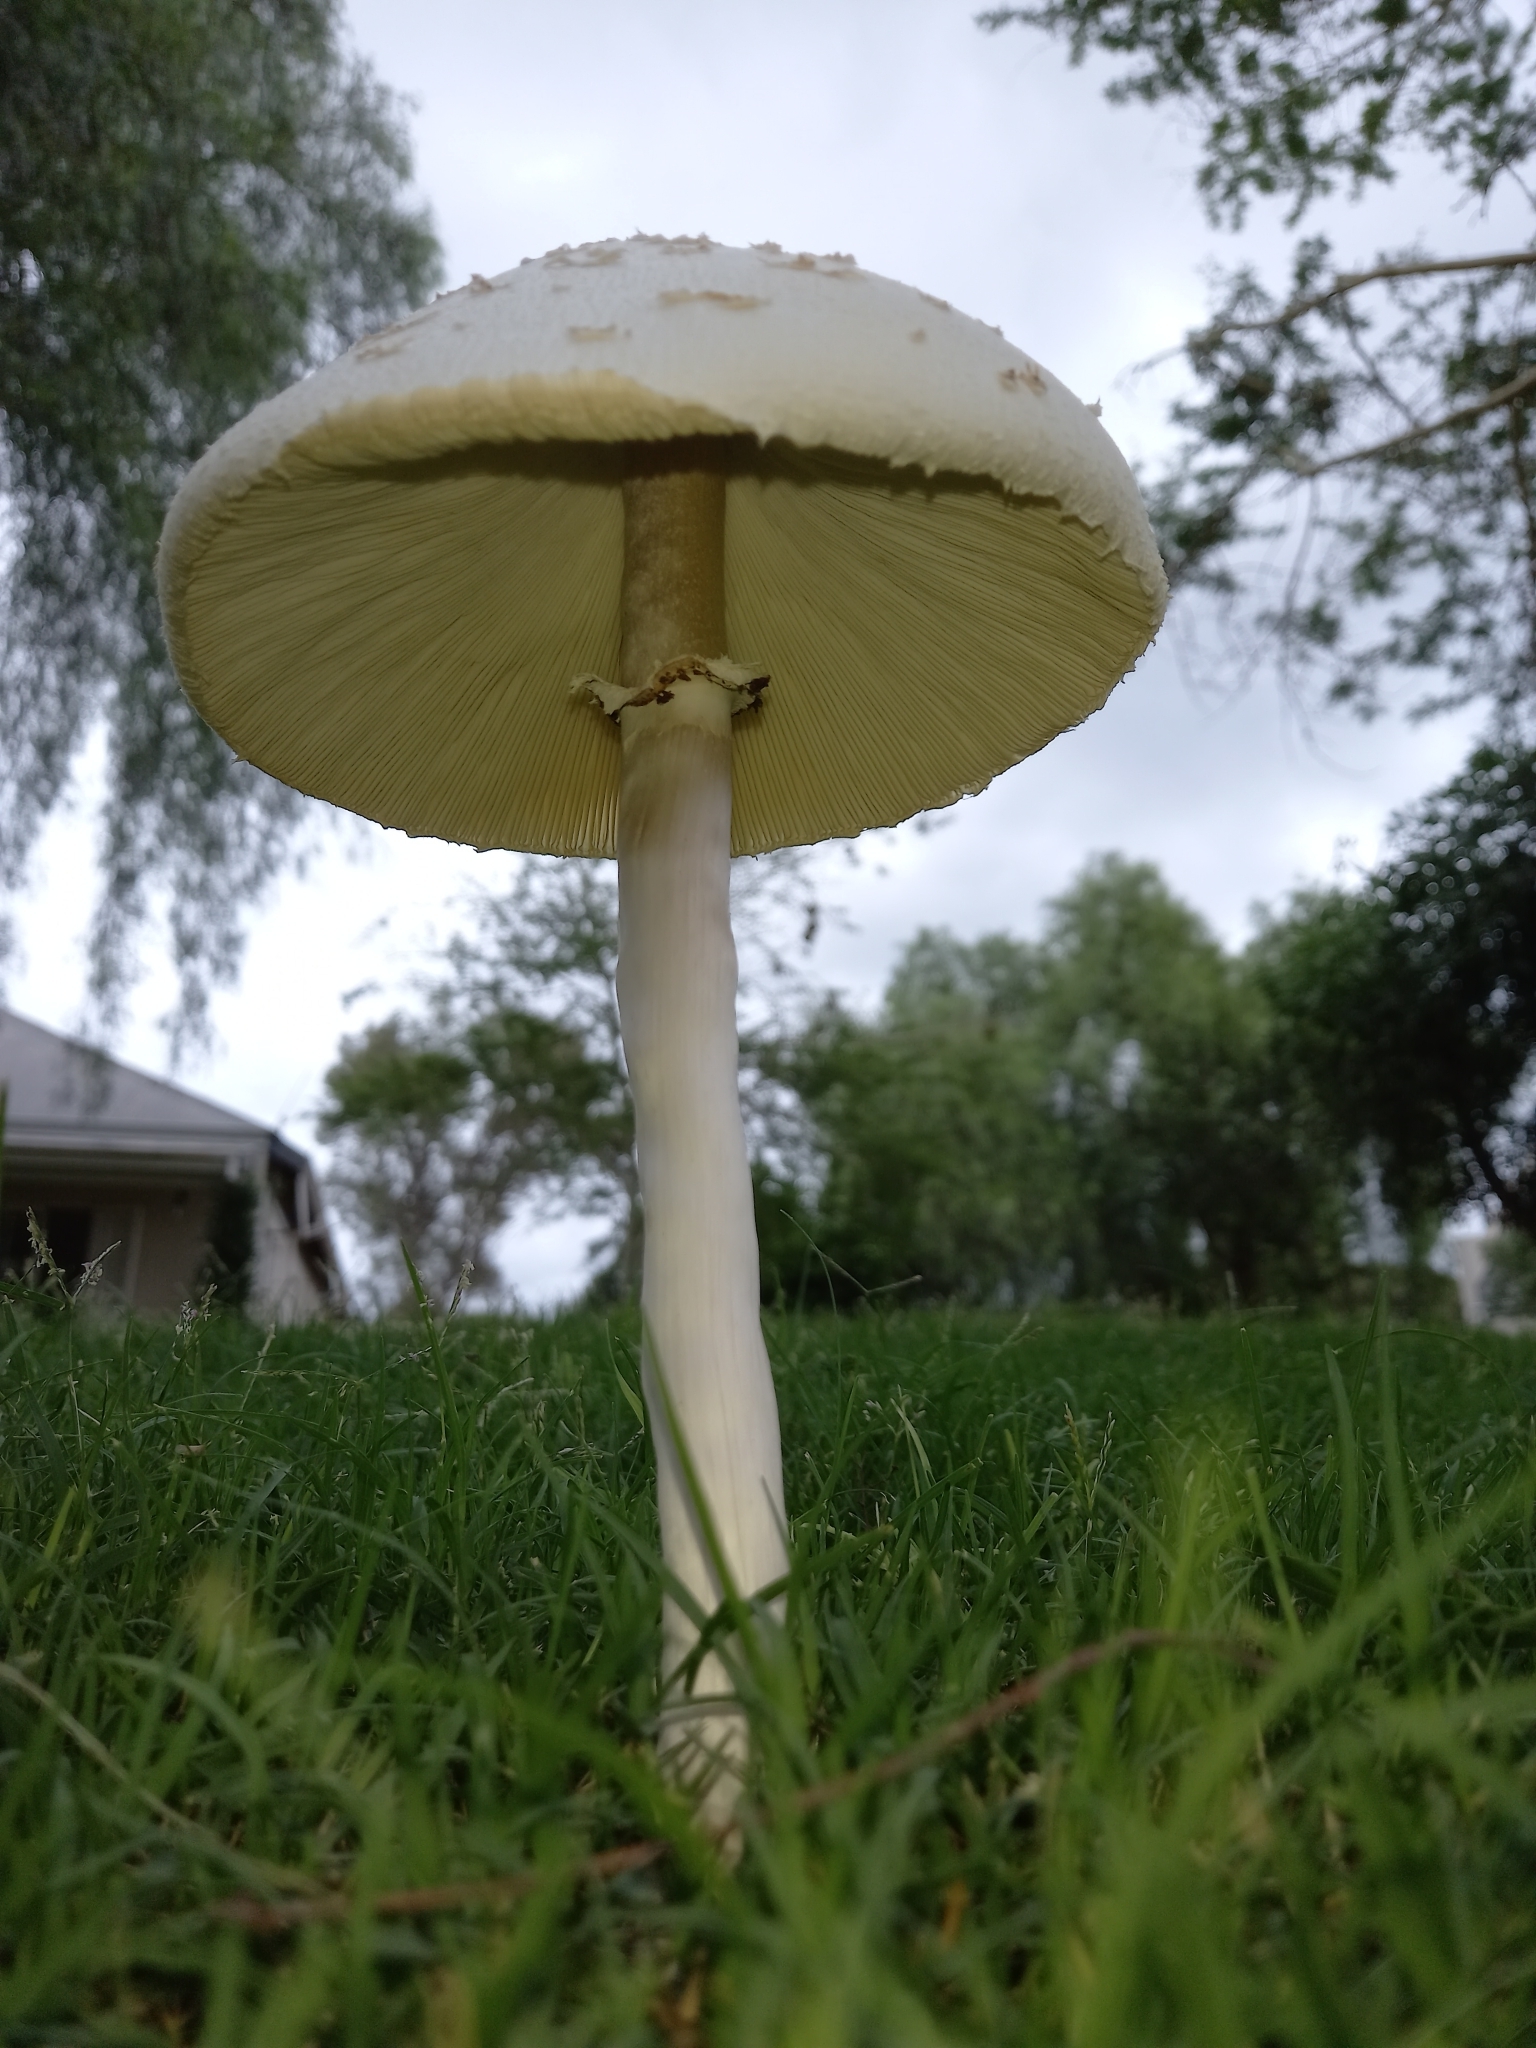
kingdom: Fungi
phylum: Basidiomycota
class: Agaricomycetes
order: Agaricales
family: Agaricaceae
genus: Chlorophyllum
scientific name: Chlorophyllum molybdites
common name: False parasol
